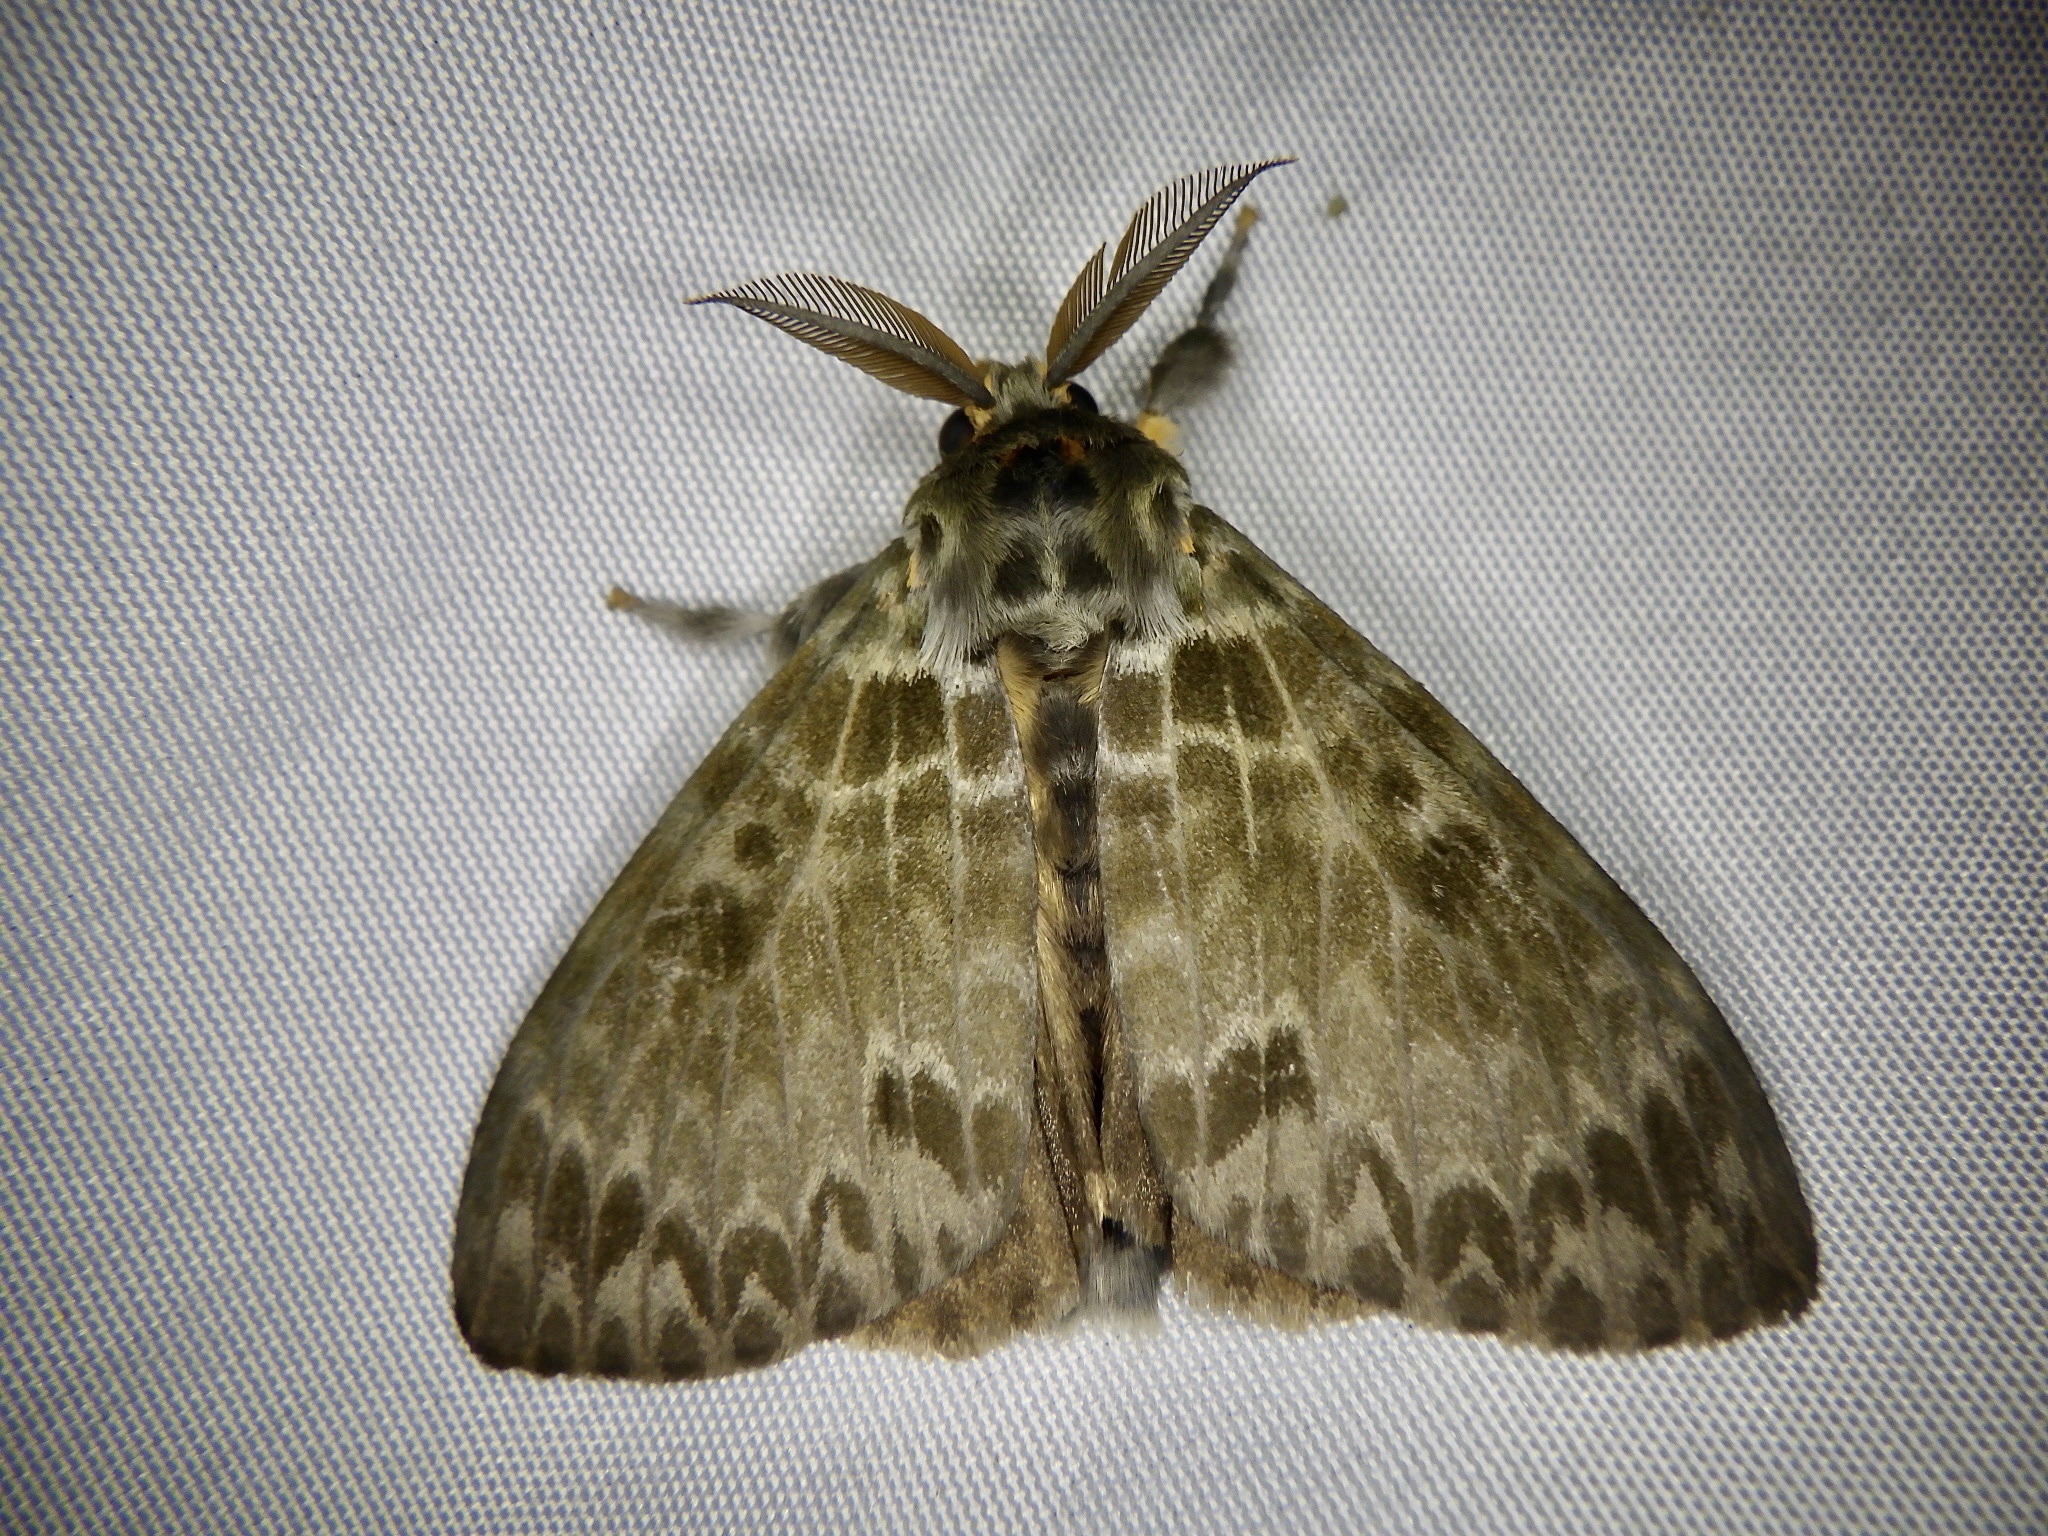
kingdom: Animalia
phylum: Arthropoda
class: Insecta
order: Lepidoptera
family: Erebidae
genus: Lymantria
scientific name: Lymantria mathura
